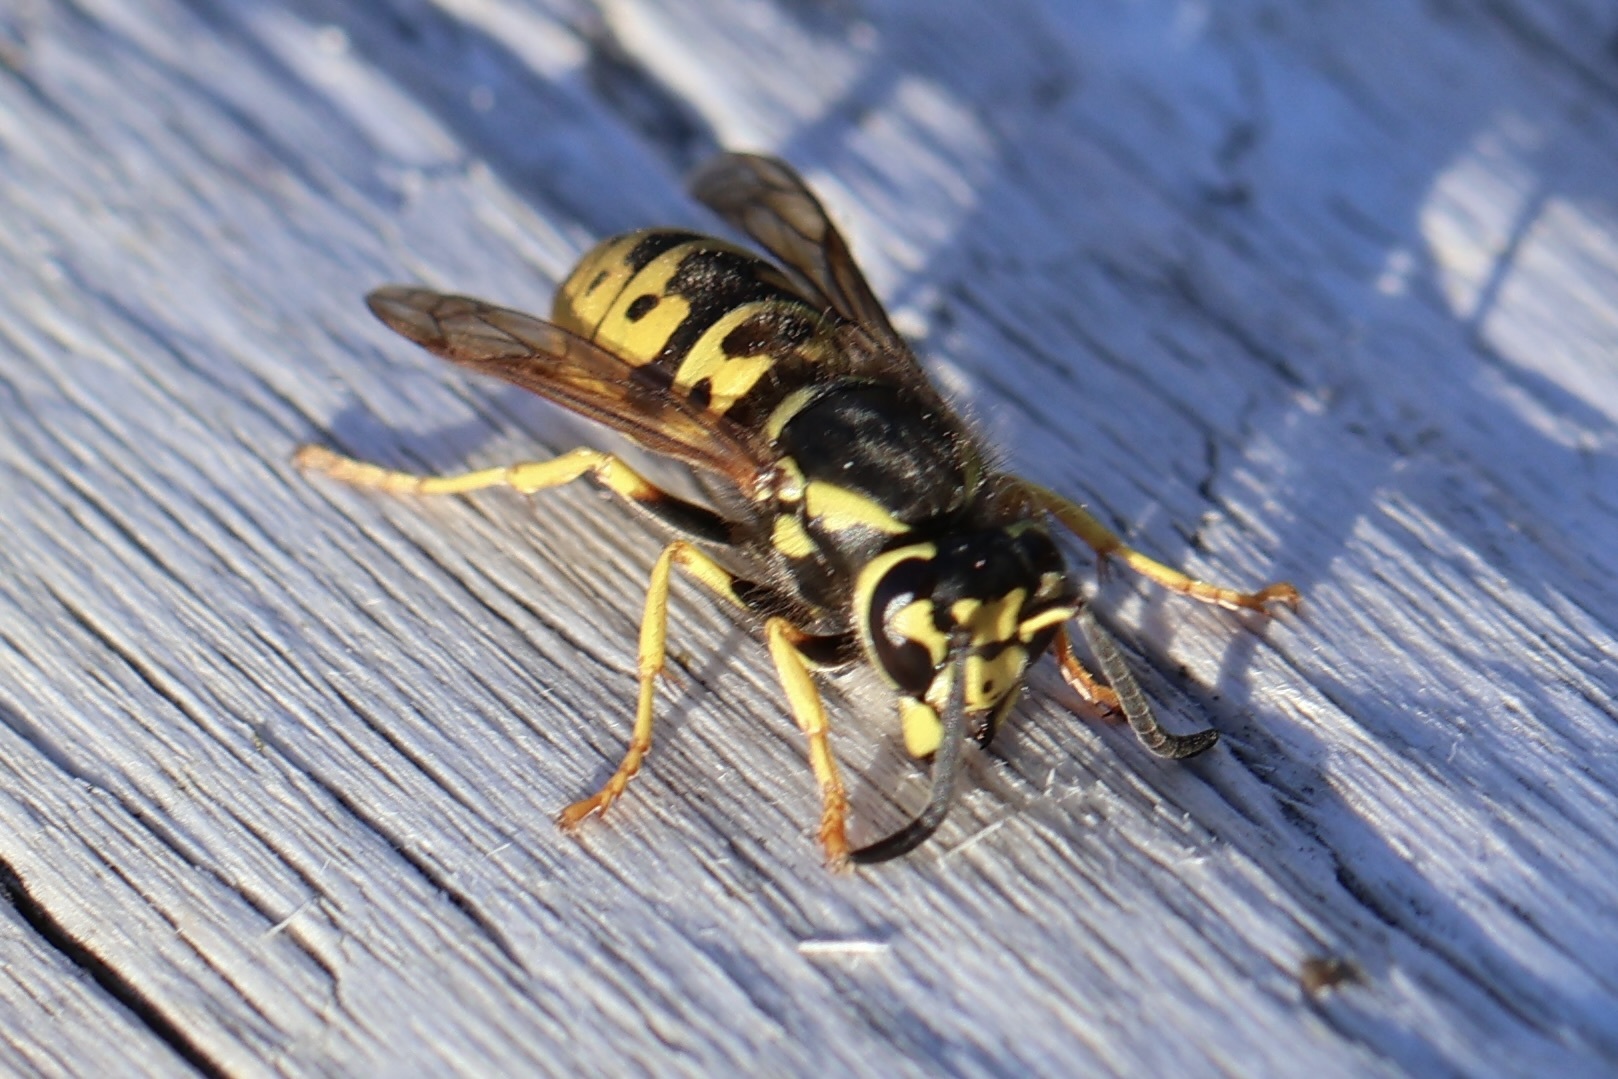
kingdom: Animalia
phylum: Arthropoda
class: Insecta
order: Hymenoptera
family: Vespidae
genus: Vespula
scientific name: Vespula atropilosa
